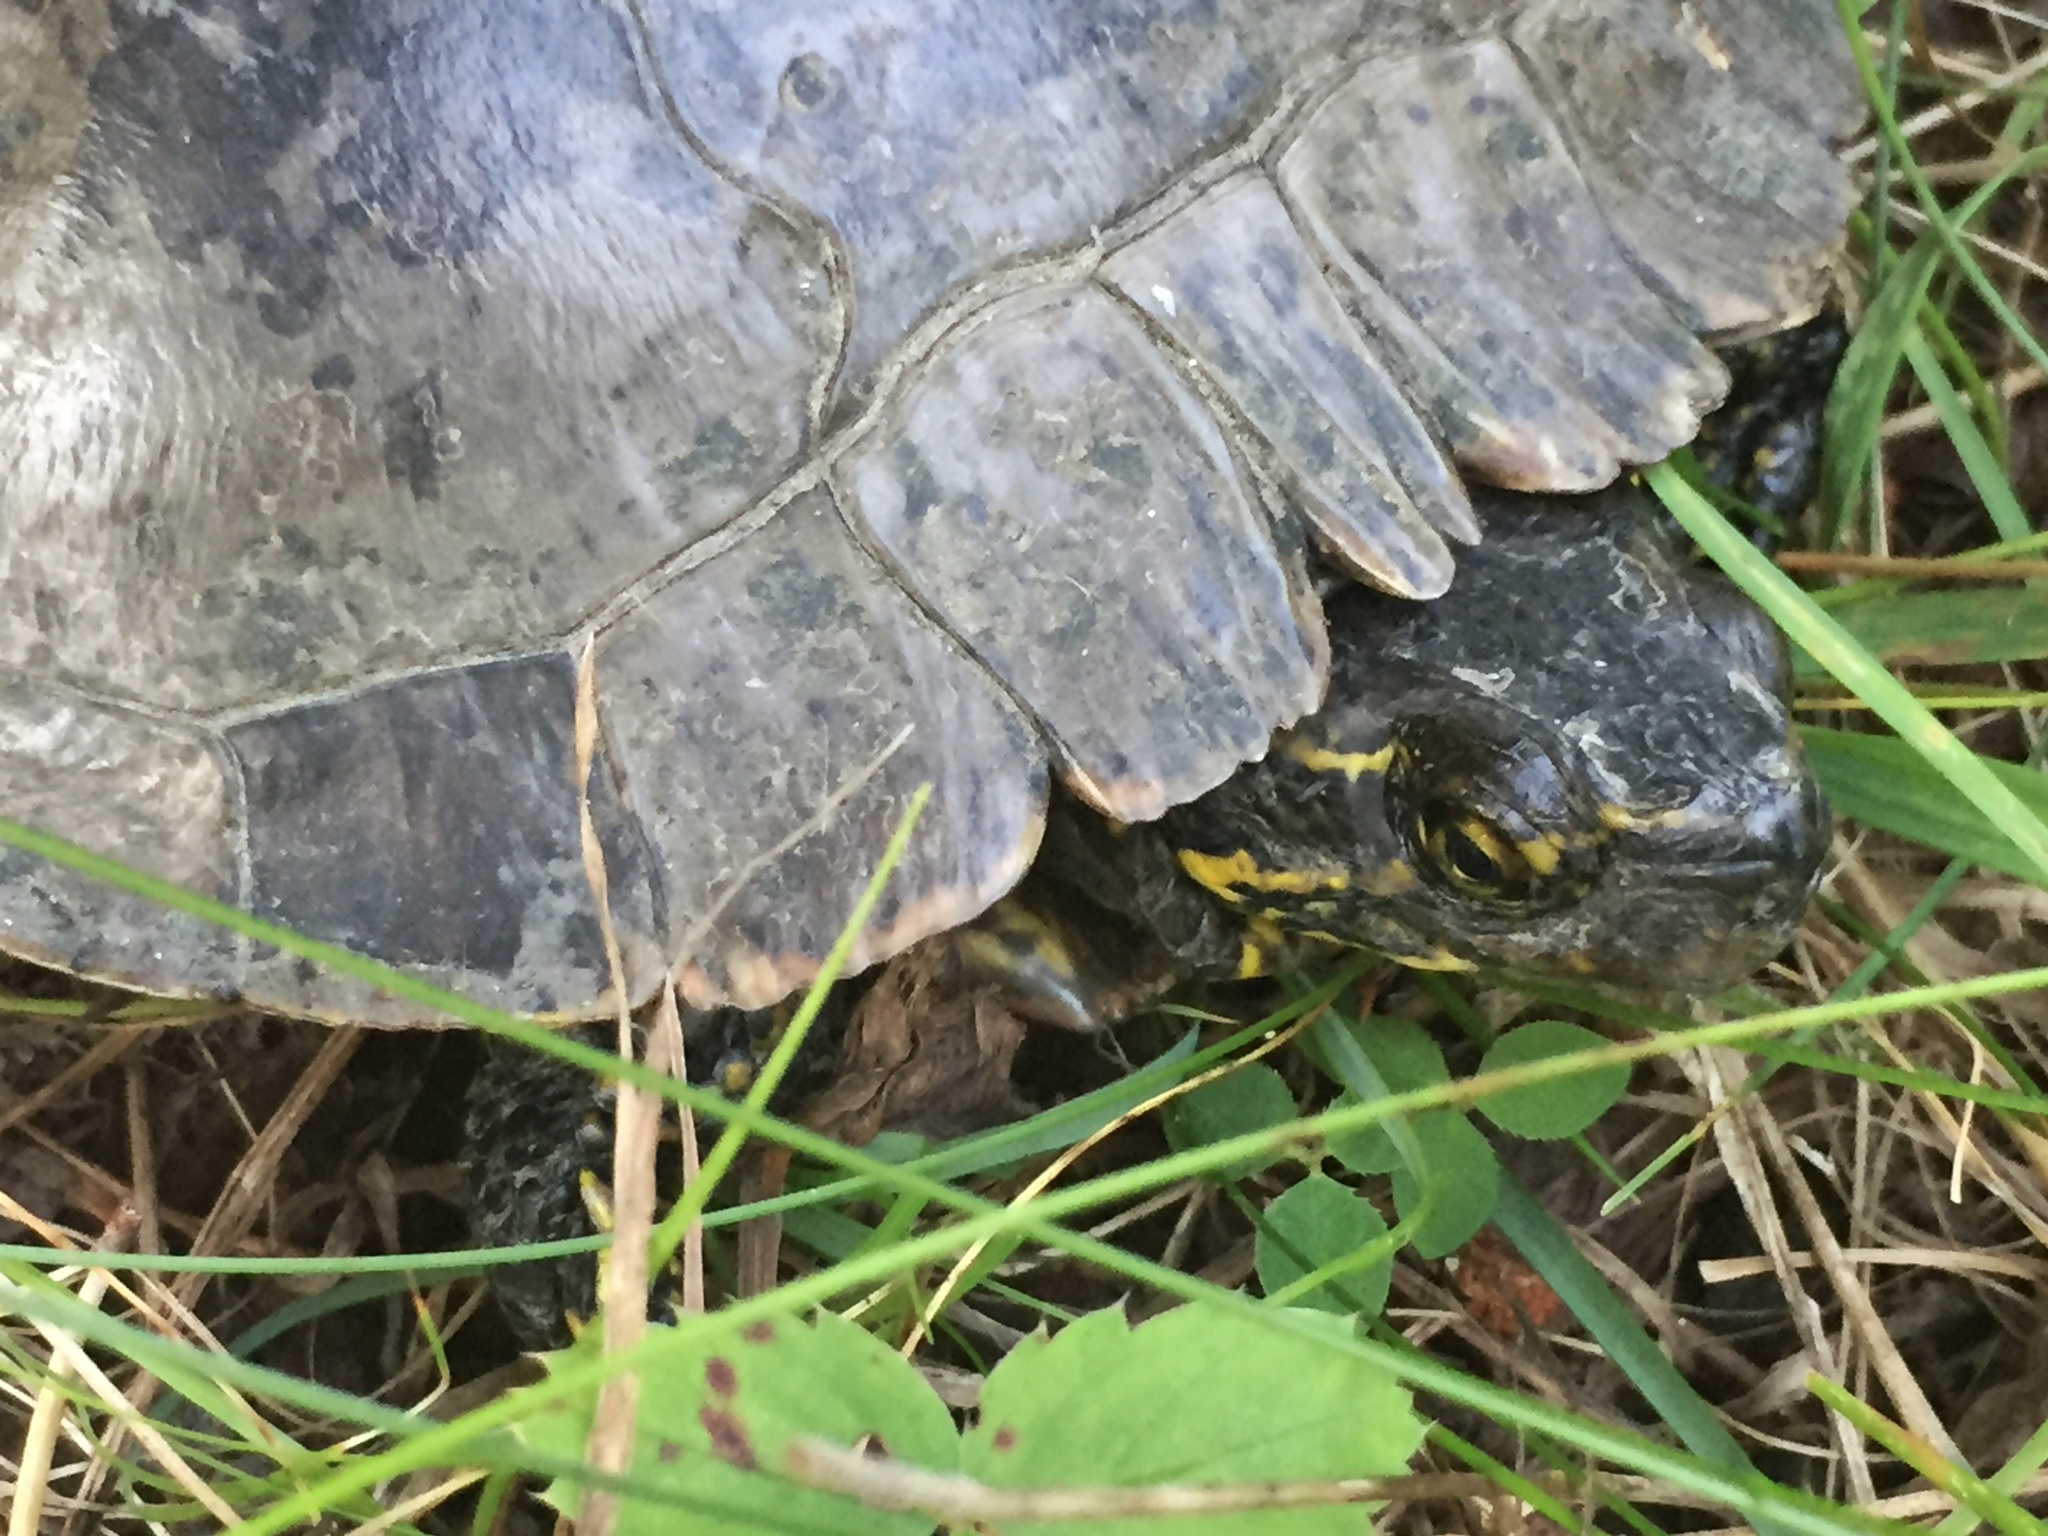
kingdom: Animalia
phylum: Chordata
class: Testudines
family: Emydidae
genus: Chrysemys
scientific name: Chrysemys picta
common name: Painted turtle
